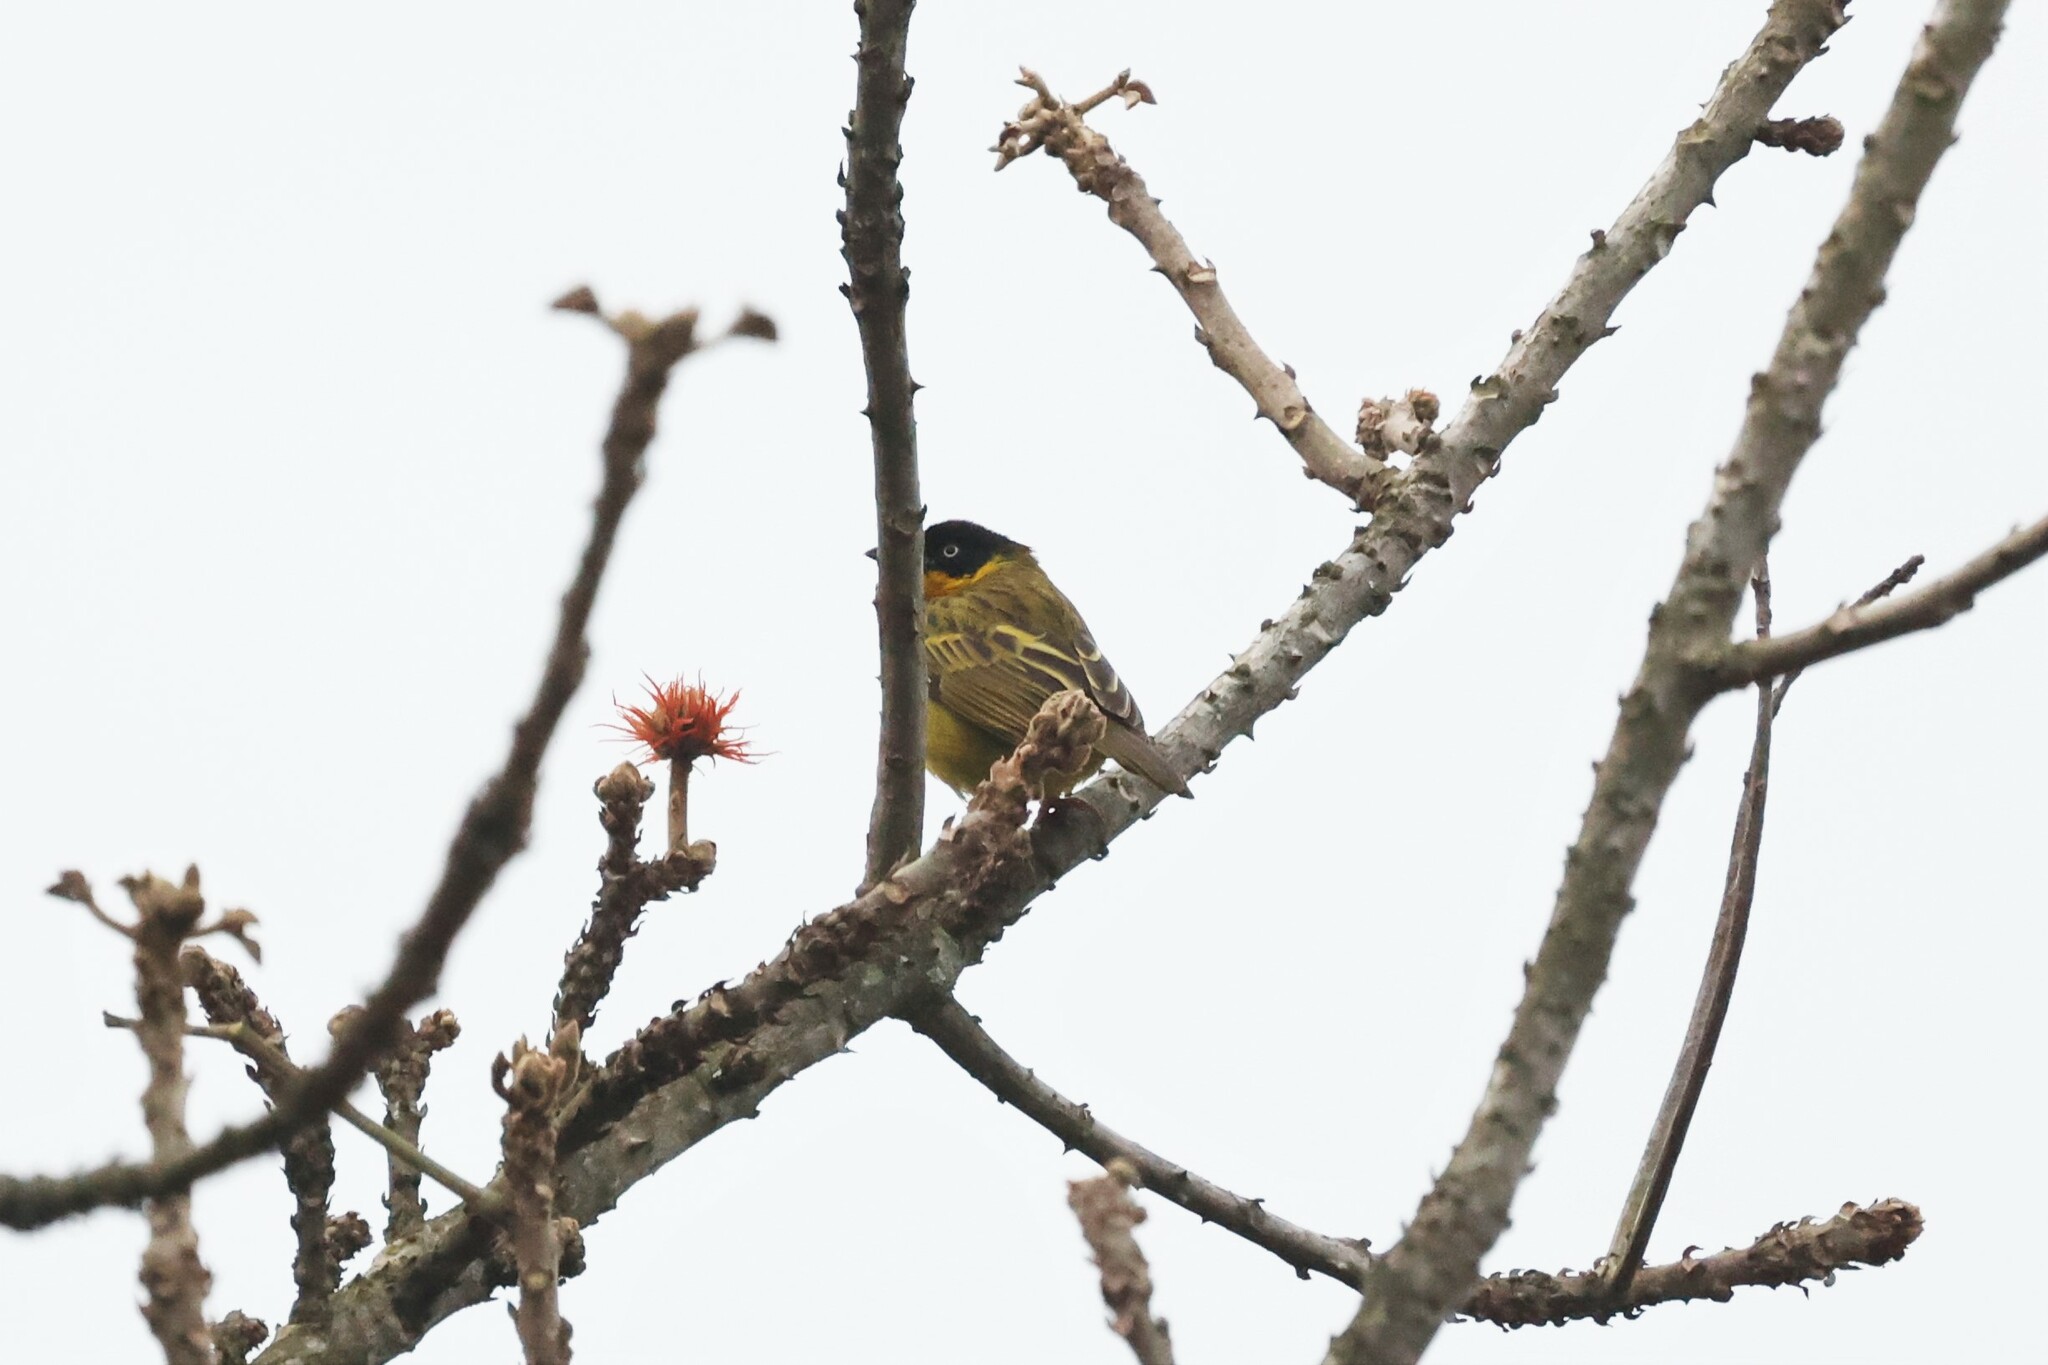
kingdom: Animalia
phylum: Chordata
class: Aves
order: Passeriformes
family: Ploceidae
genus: Ploceus
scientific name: Ploceus baglafecht
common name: Baglafecht weaver
